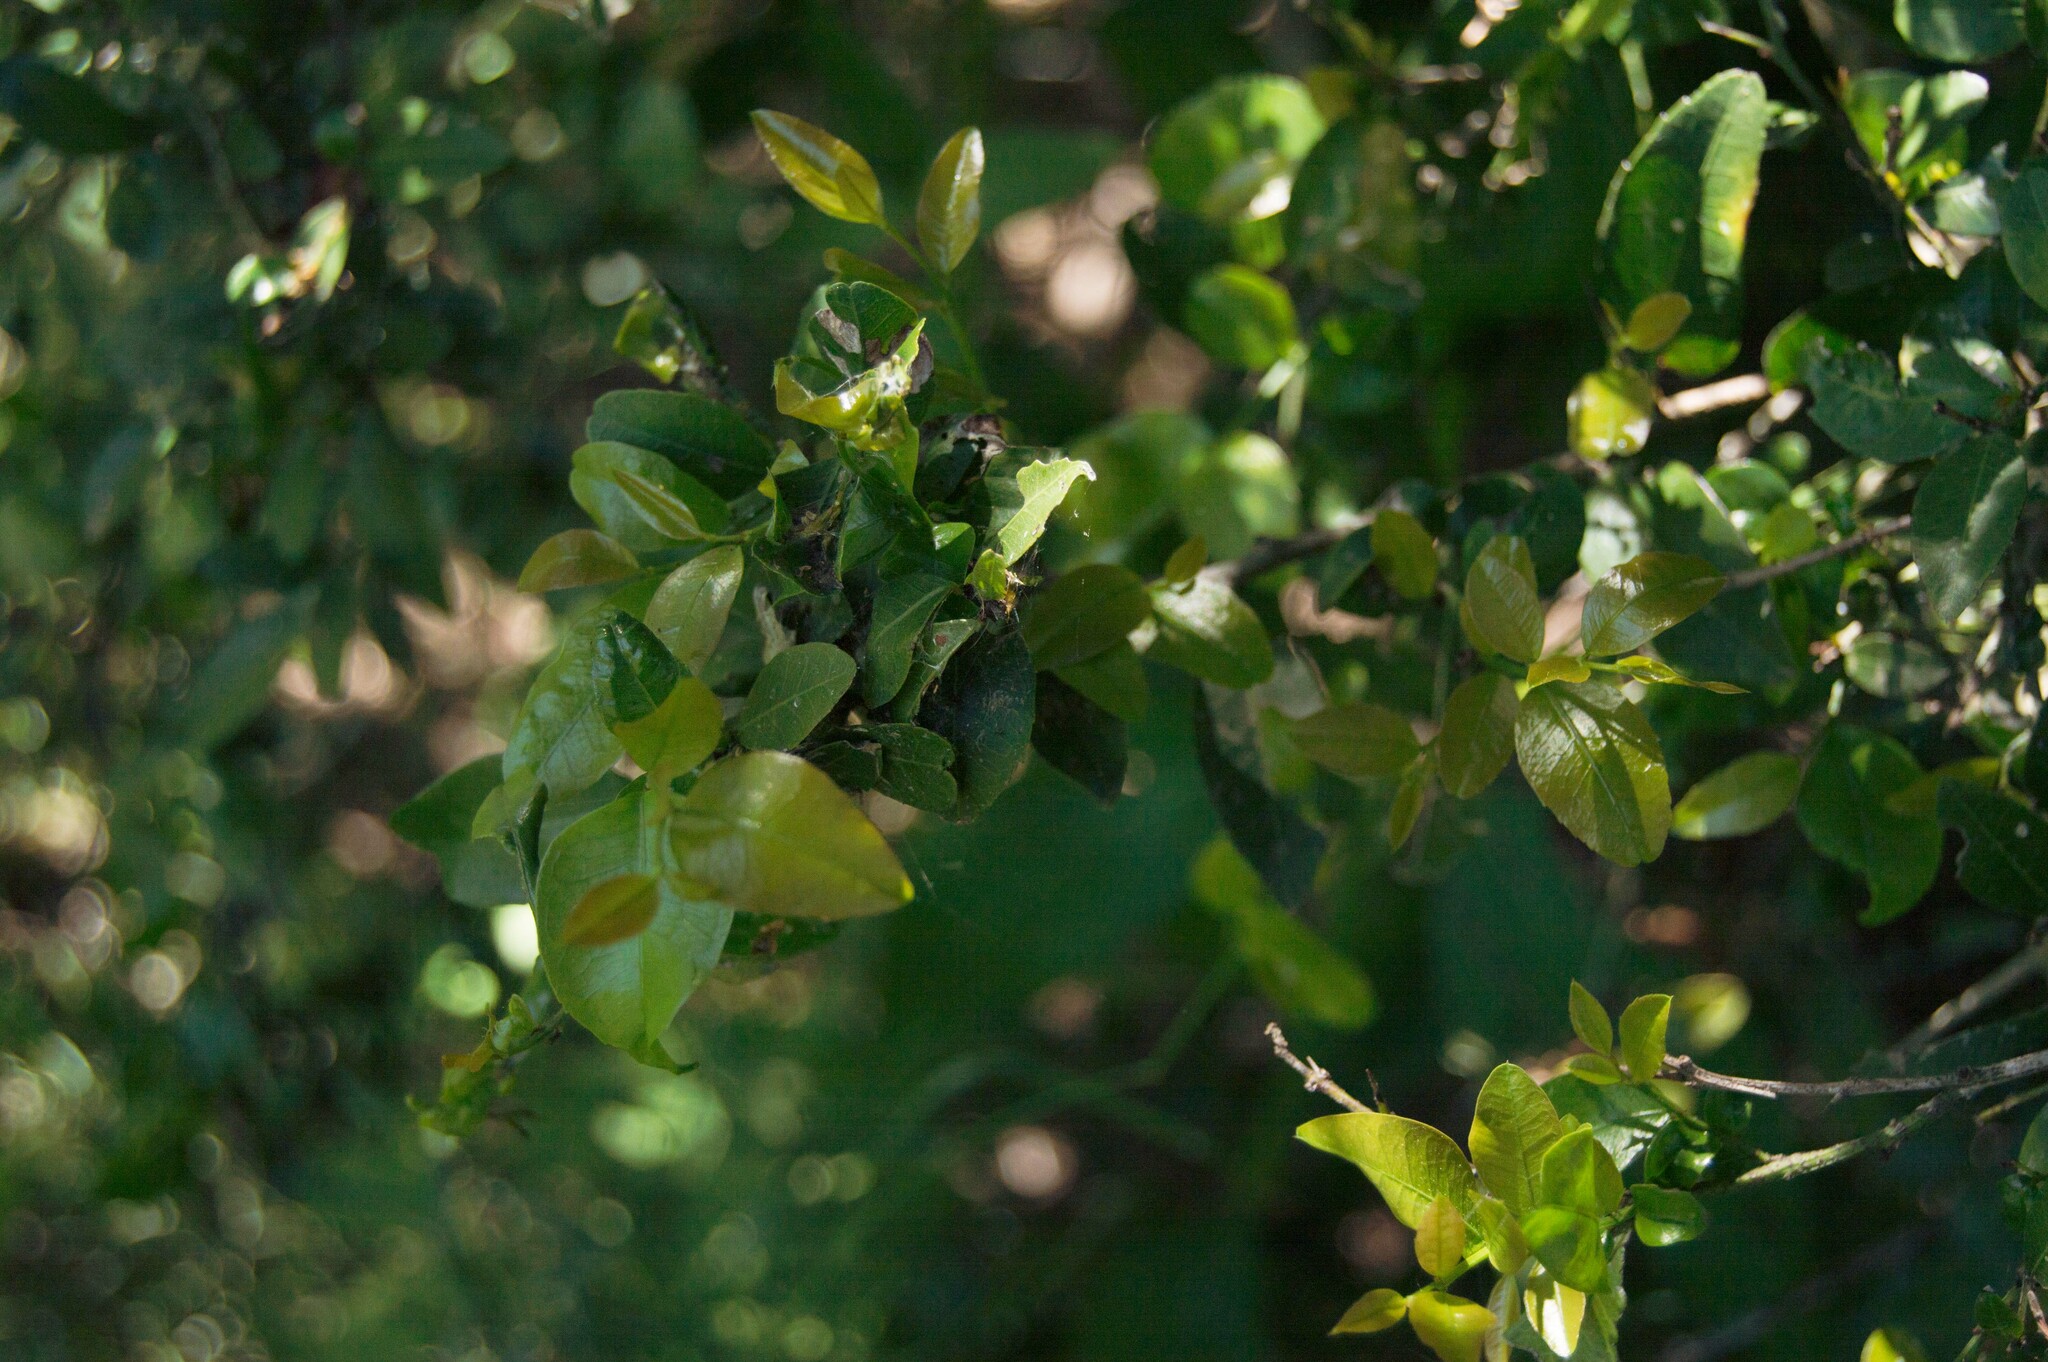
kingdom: Plantae
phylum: Tracheophyta
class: Magnoliopsida
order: Rosales
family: Rhamnaceae
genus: Scutia
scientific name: Scutia buxifolia
